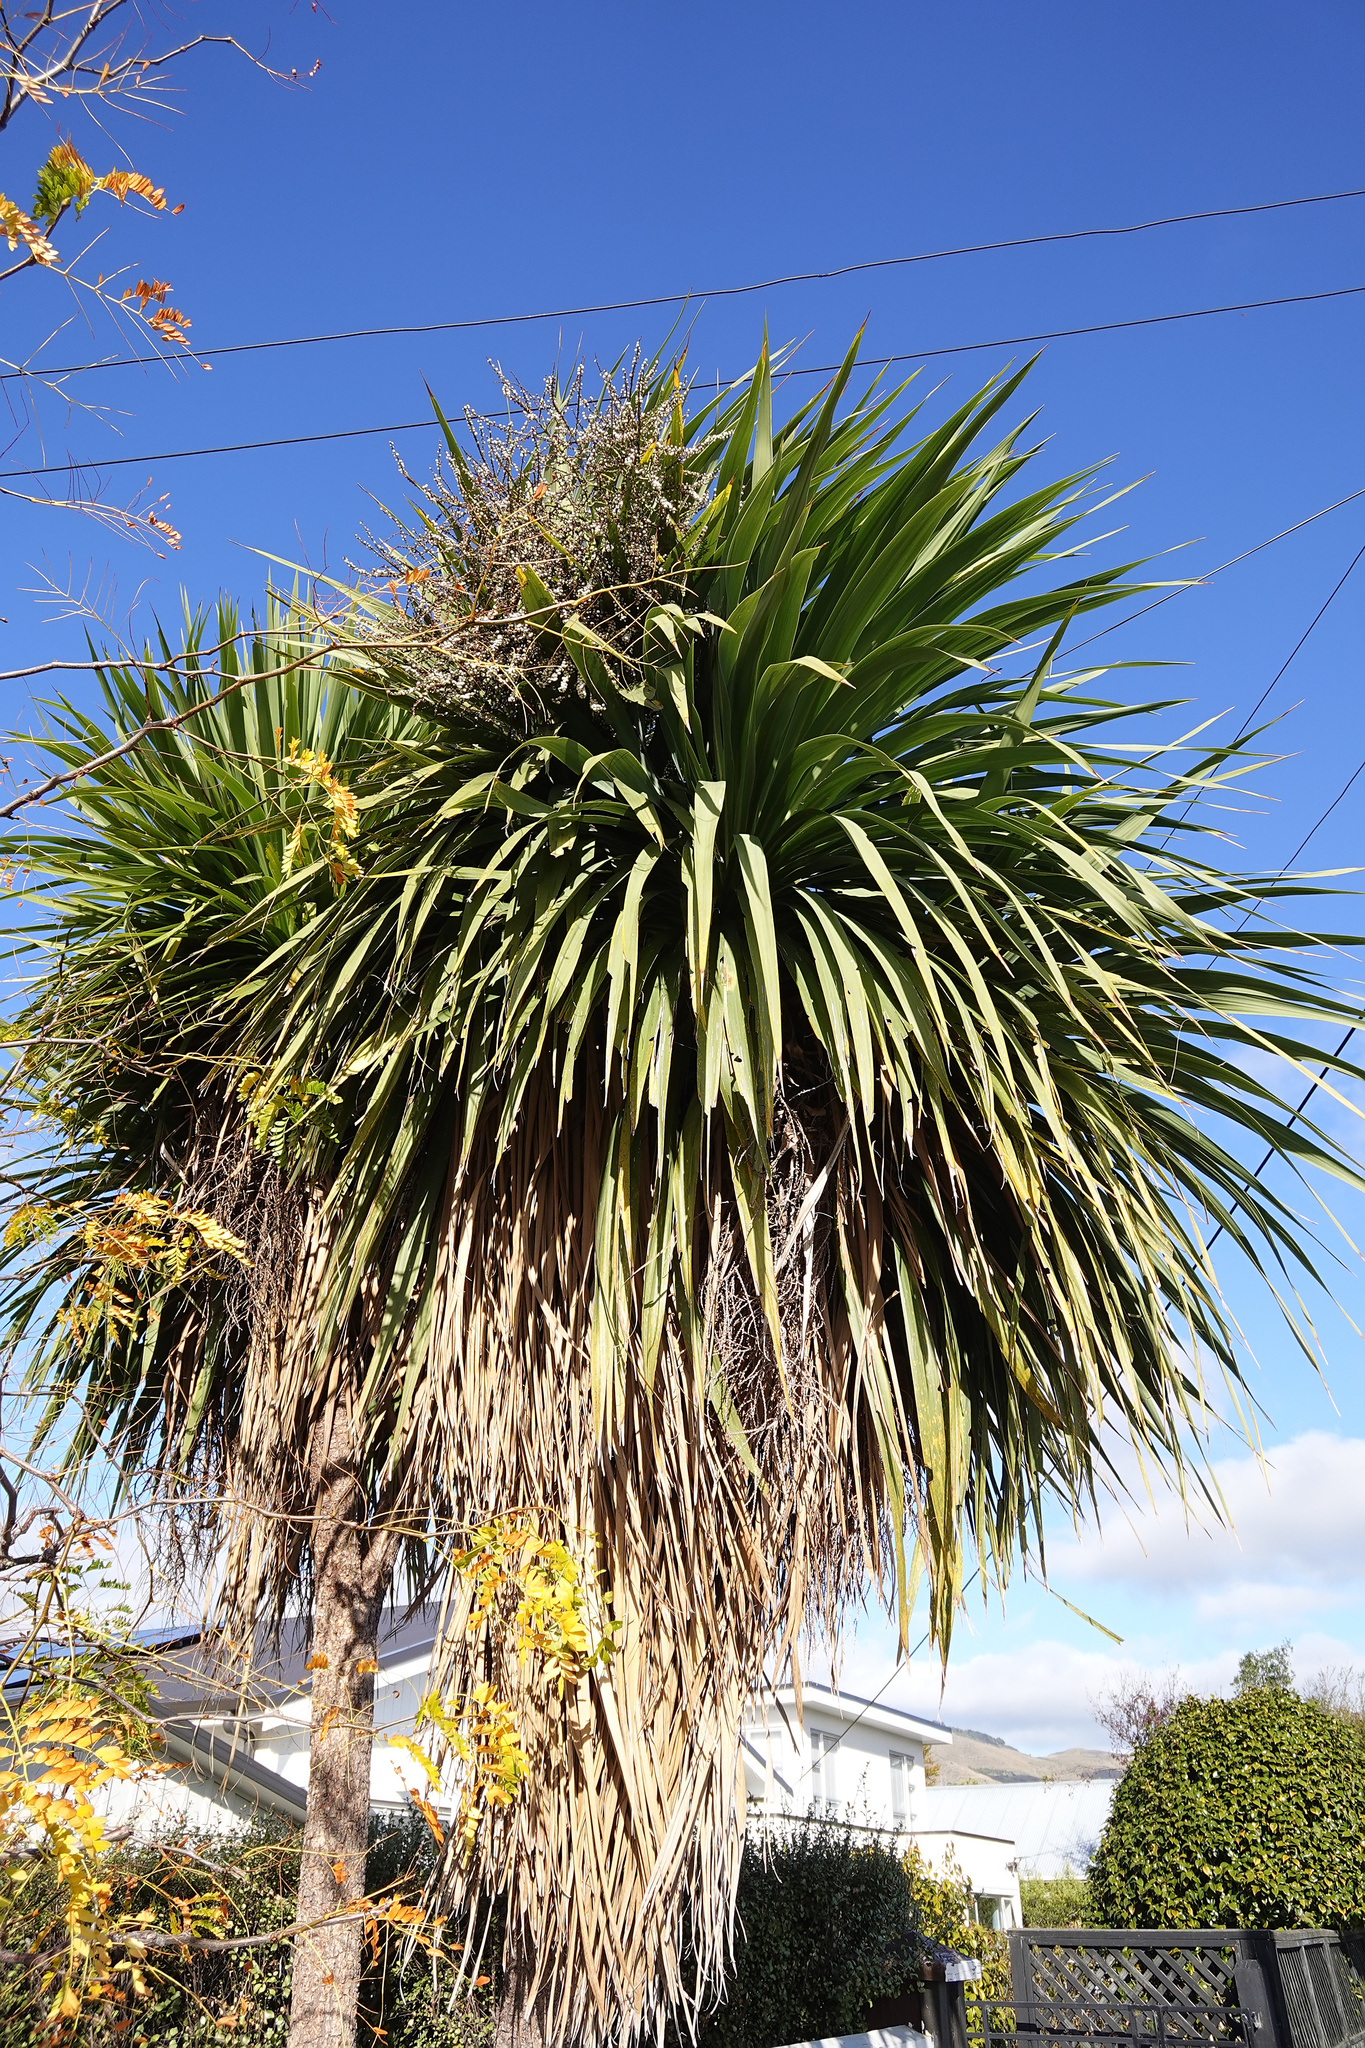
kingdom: Plantae
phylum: Tracheophyta
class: Liliopsida
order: Asparagales
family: Asparagaceae
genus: Cordyline
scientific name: Cordyline australis
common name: Cabbage-palm
